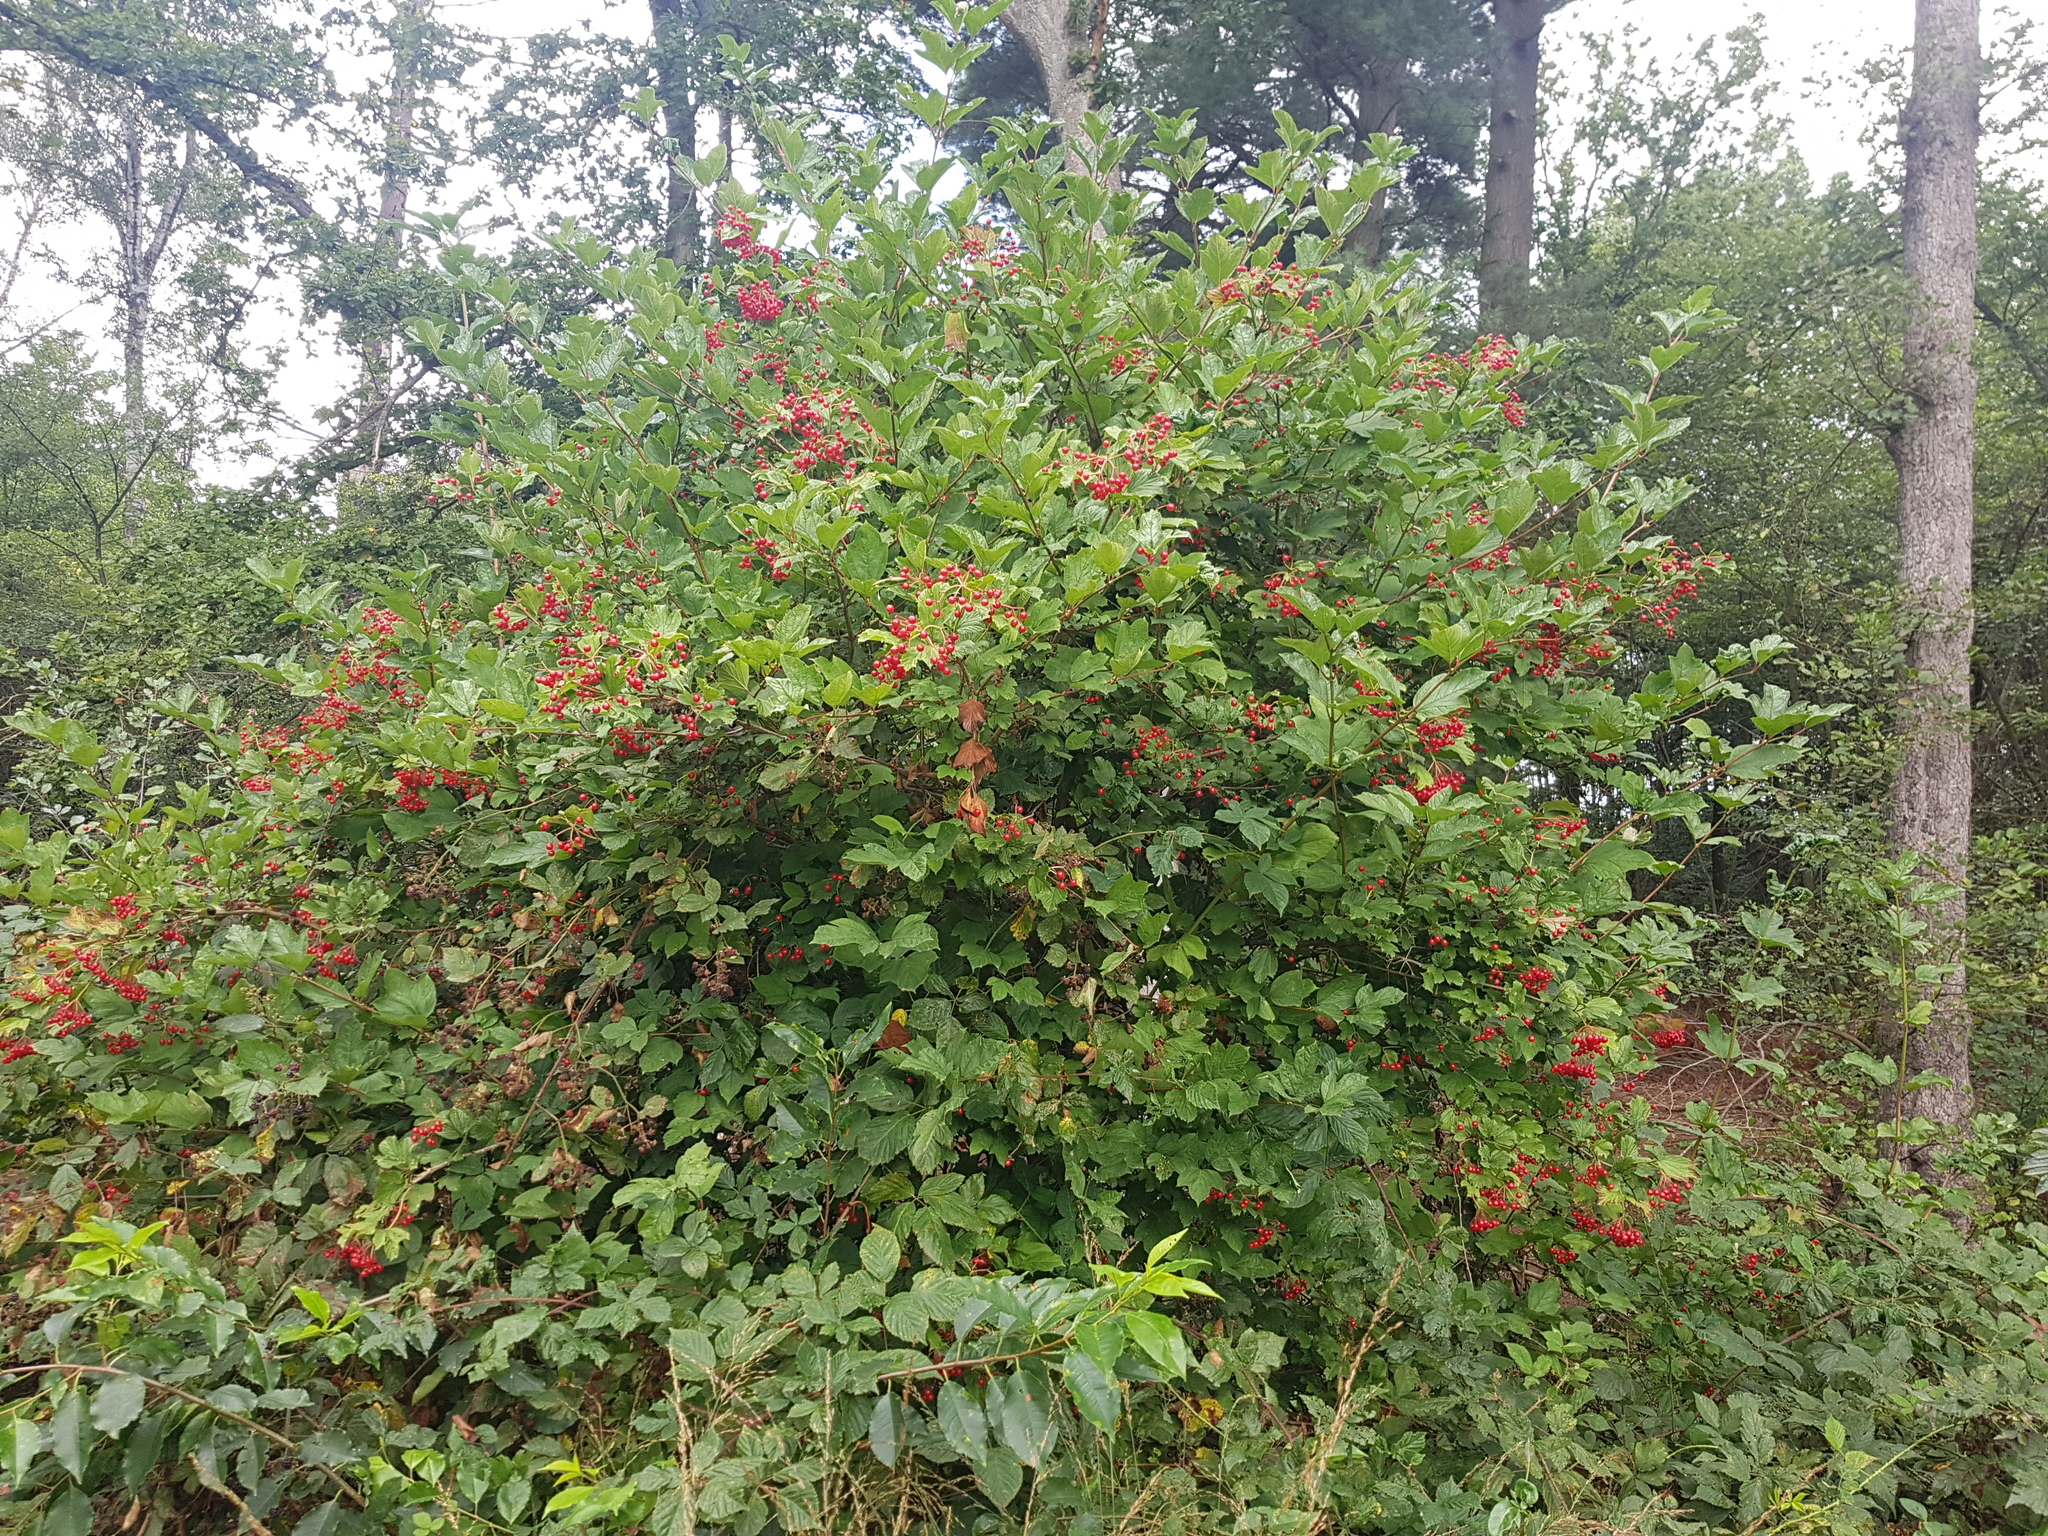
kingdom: Plantae
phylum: Tracheophyta
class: Magnoliopsida
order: Dipsacales
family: Viburnaceae
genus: Viburnum
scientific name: Viburnum opulus
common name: Guelder-rose
